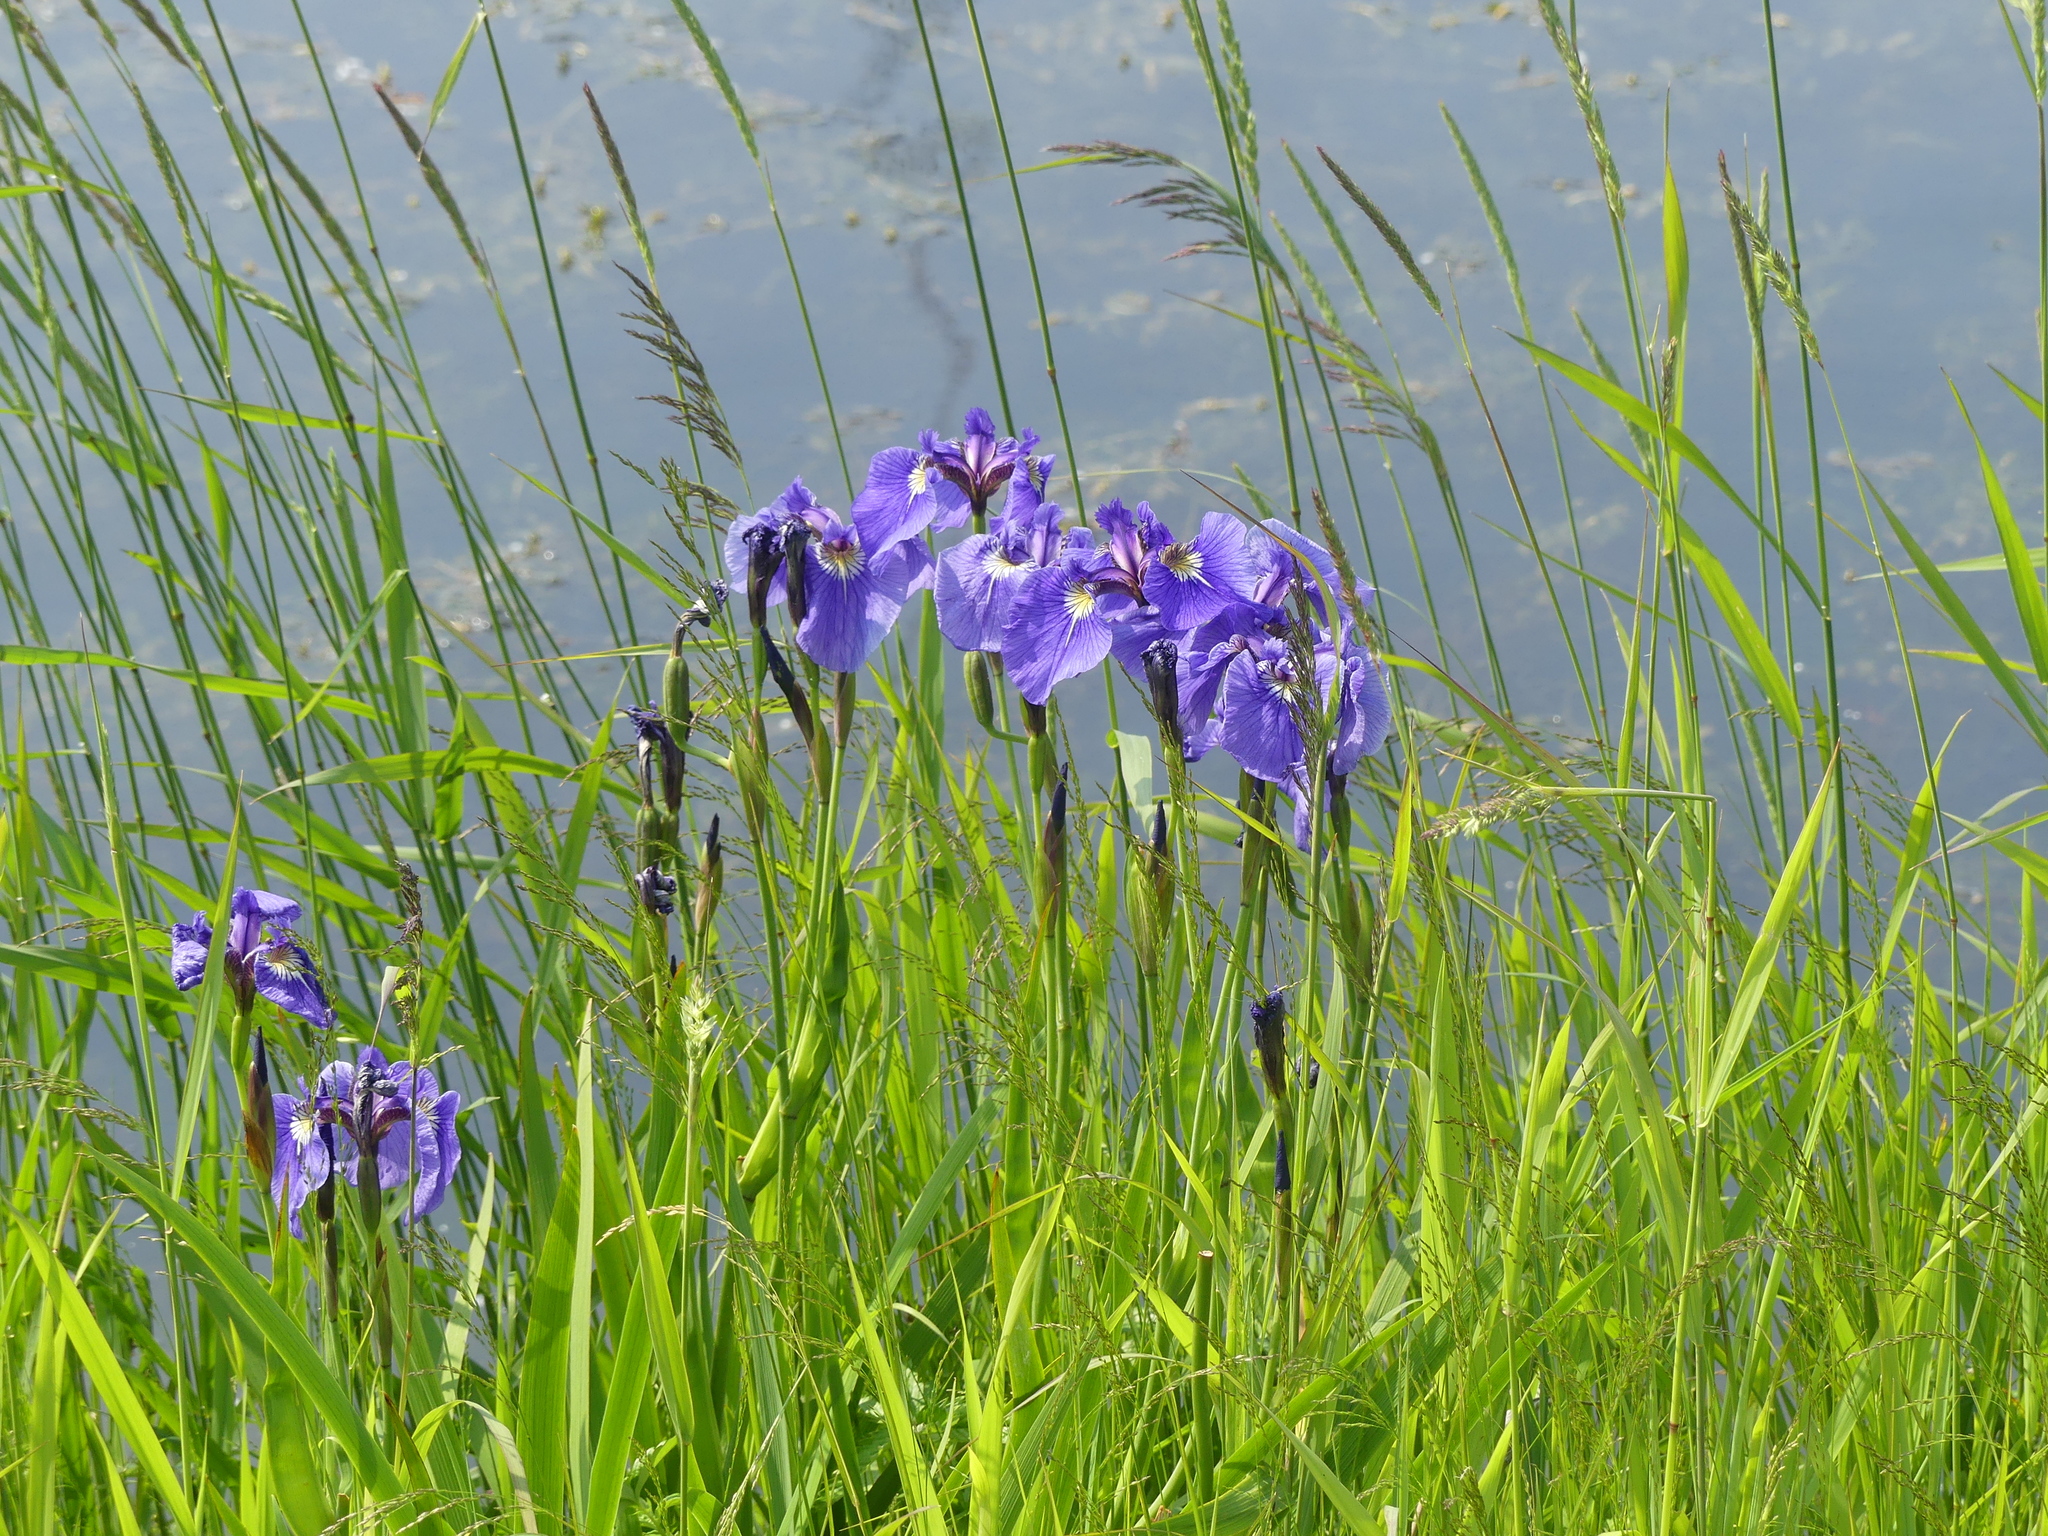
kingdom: Plantae
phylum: Tracheophyta
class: Liliopsida
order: Asparagales
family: Iridaceae
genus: Iris
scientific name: Iris setosa
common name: Arctic blue flag
